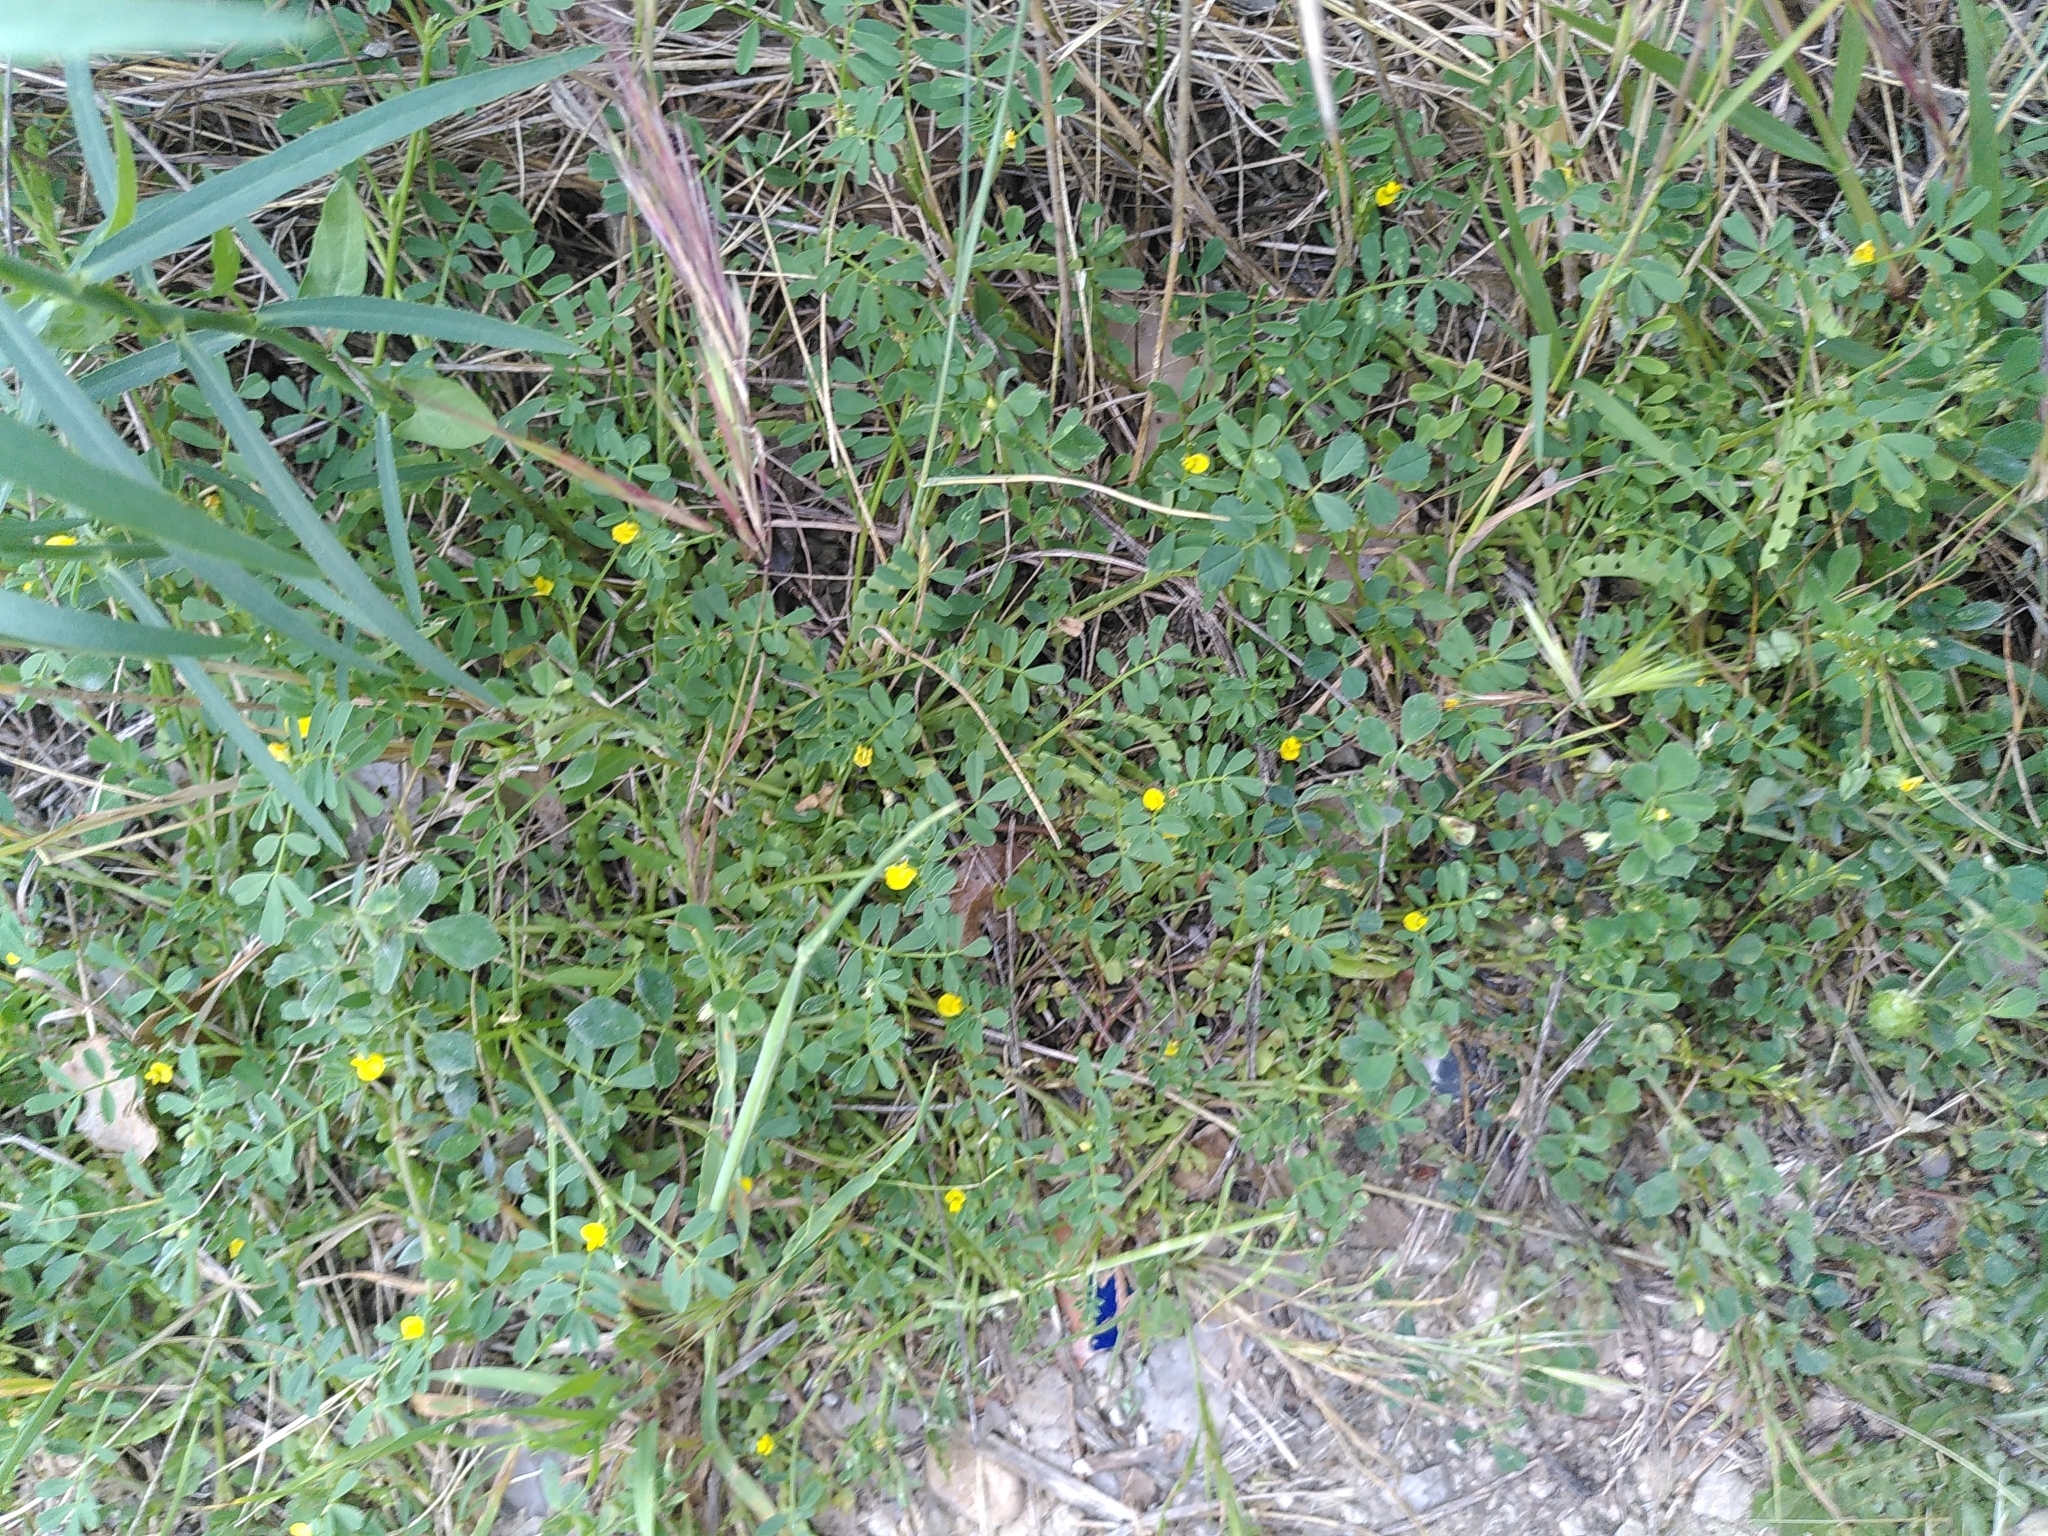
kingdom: Plantae
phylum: Tracheophyta
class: Magnoliopsida
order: Fabales
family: Fabaceae
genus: Hippocrepis
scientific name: Hippocrepis biflora
